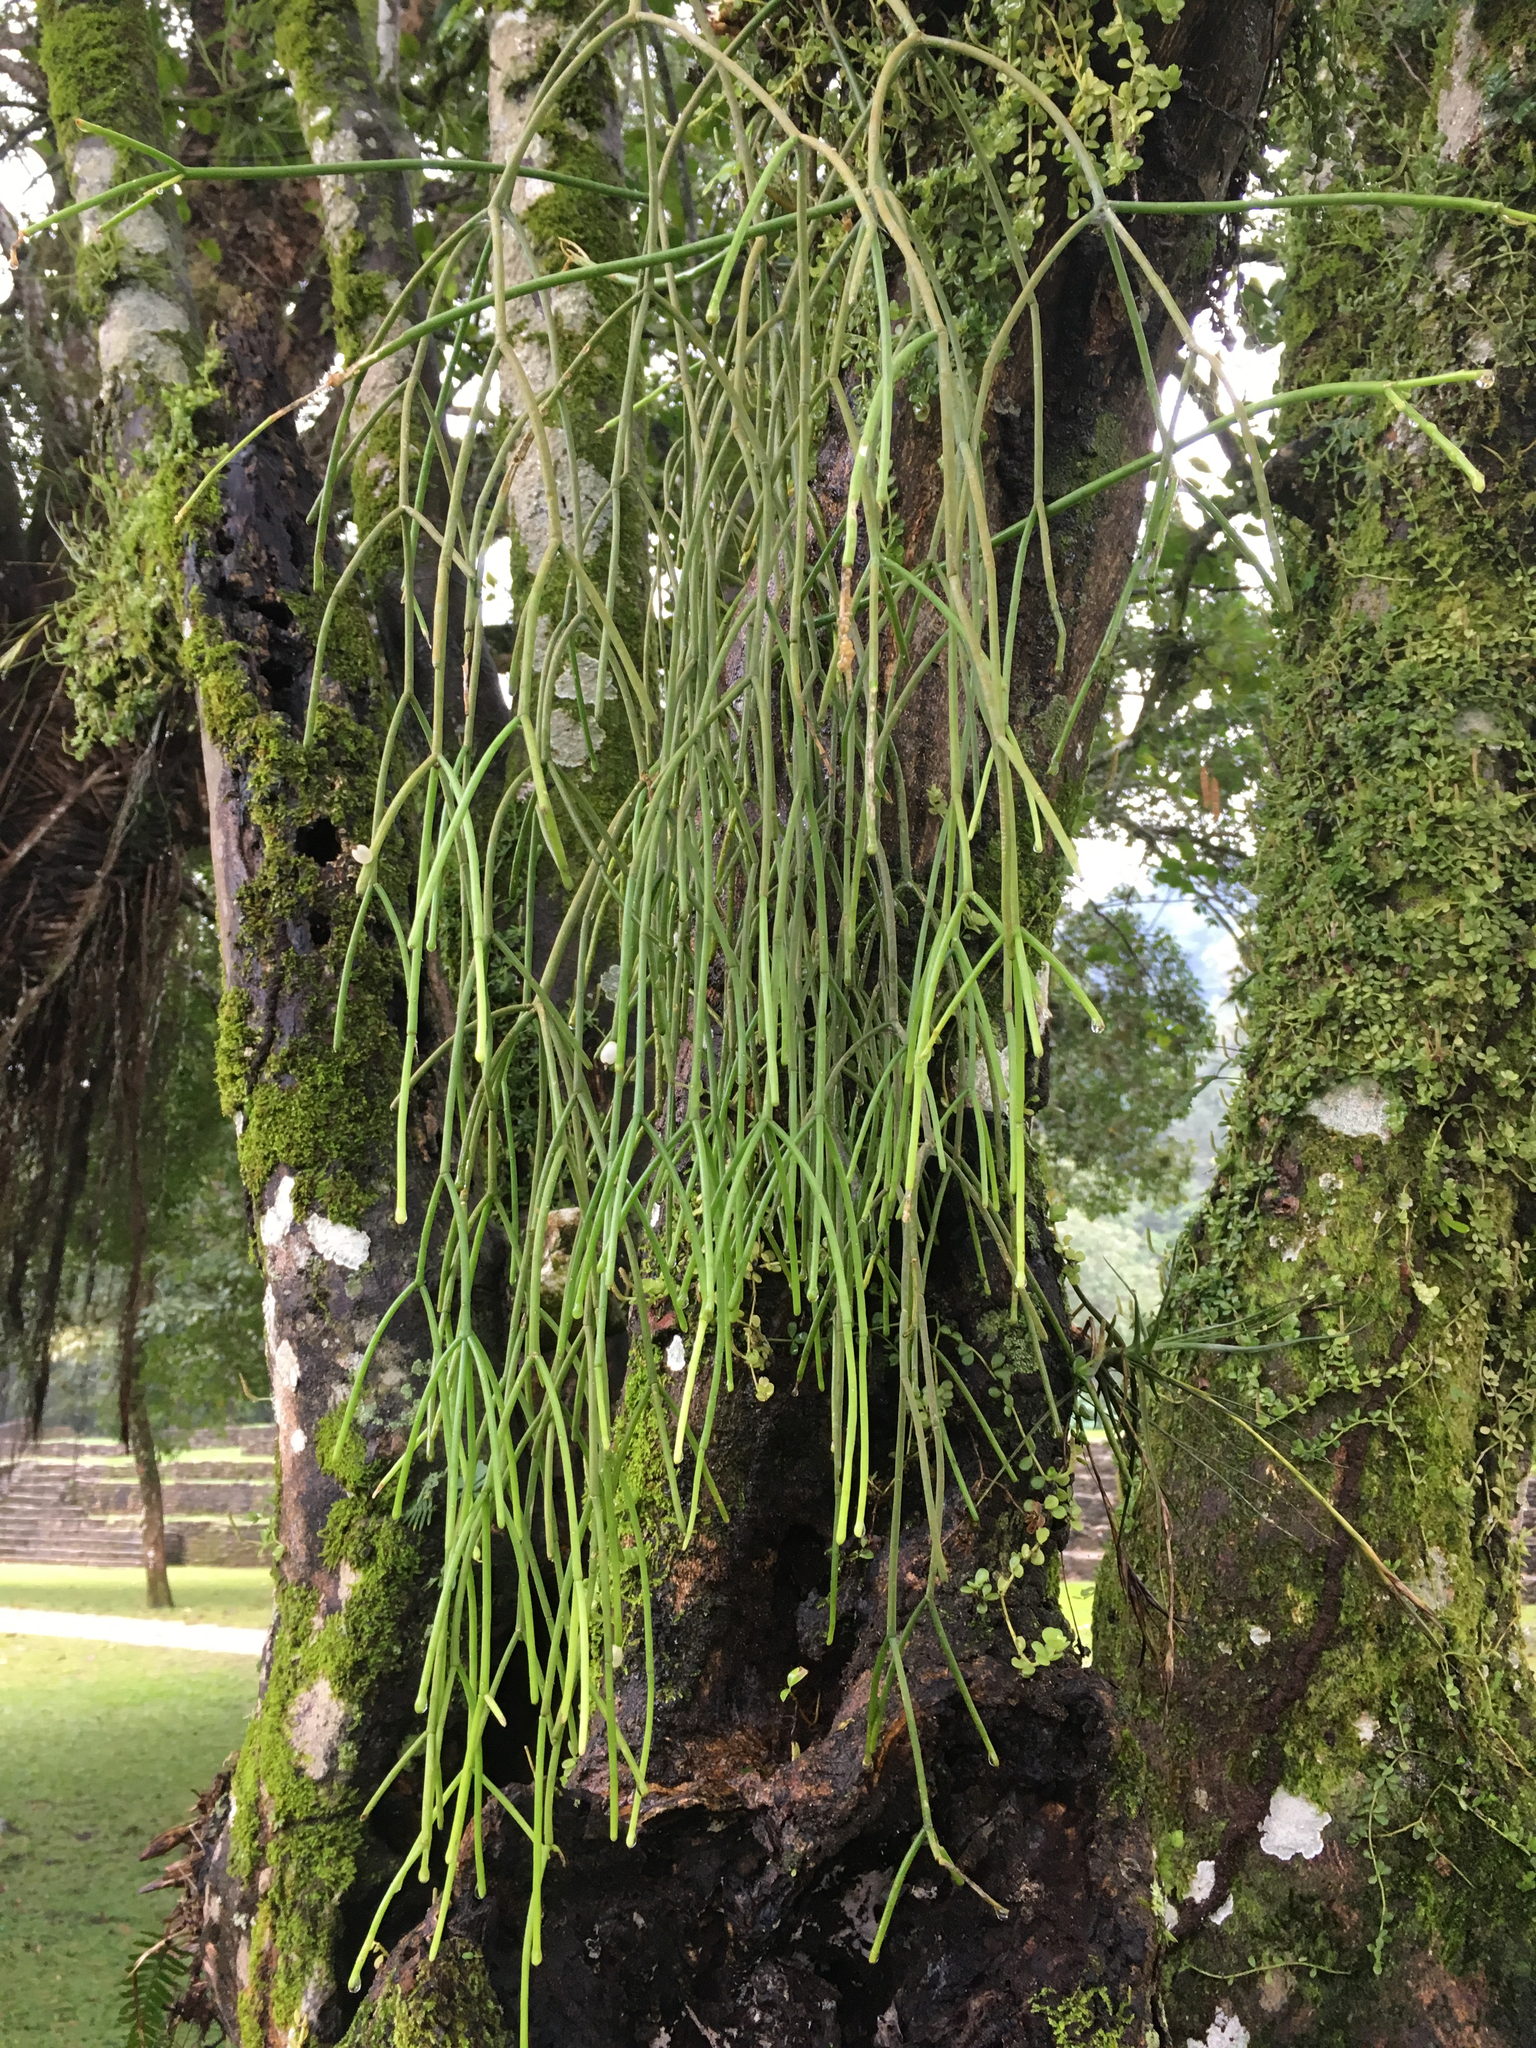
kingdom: Plantae
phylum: Tracheophyta
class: Magnoliopsida
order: Caryophyllales
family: Cactaceae
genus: Rhipsalis
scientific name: Rhipsalis baccifera
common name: Mistletoe cactus
